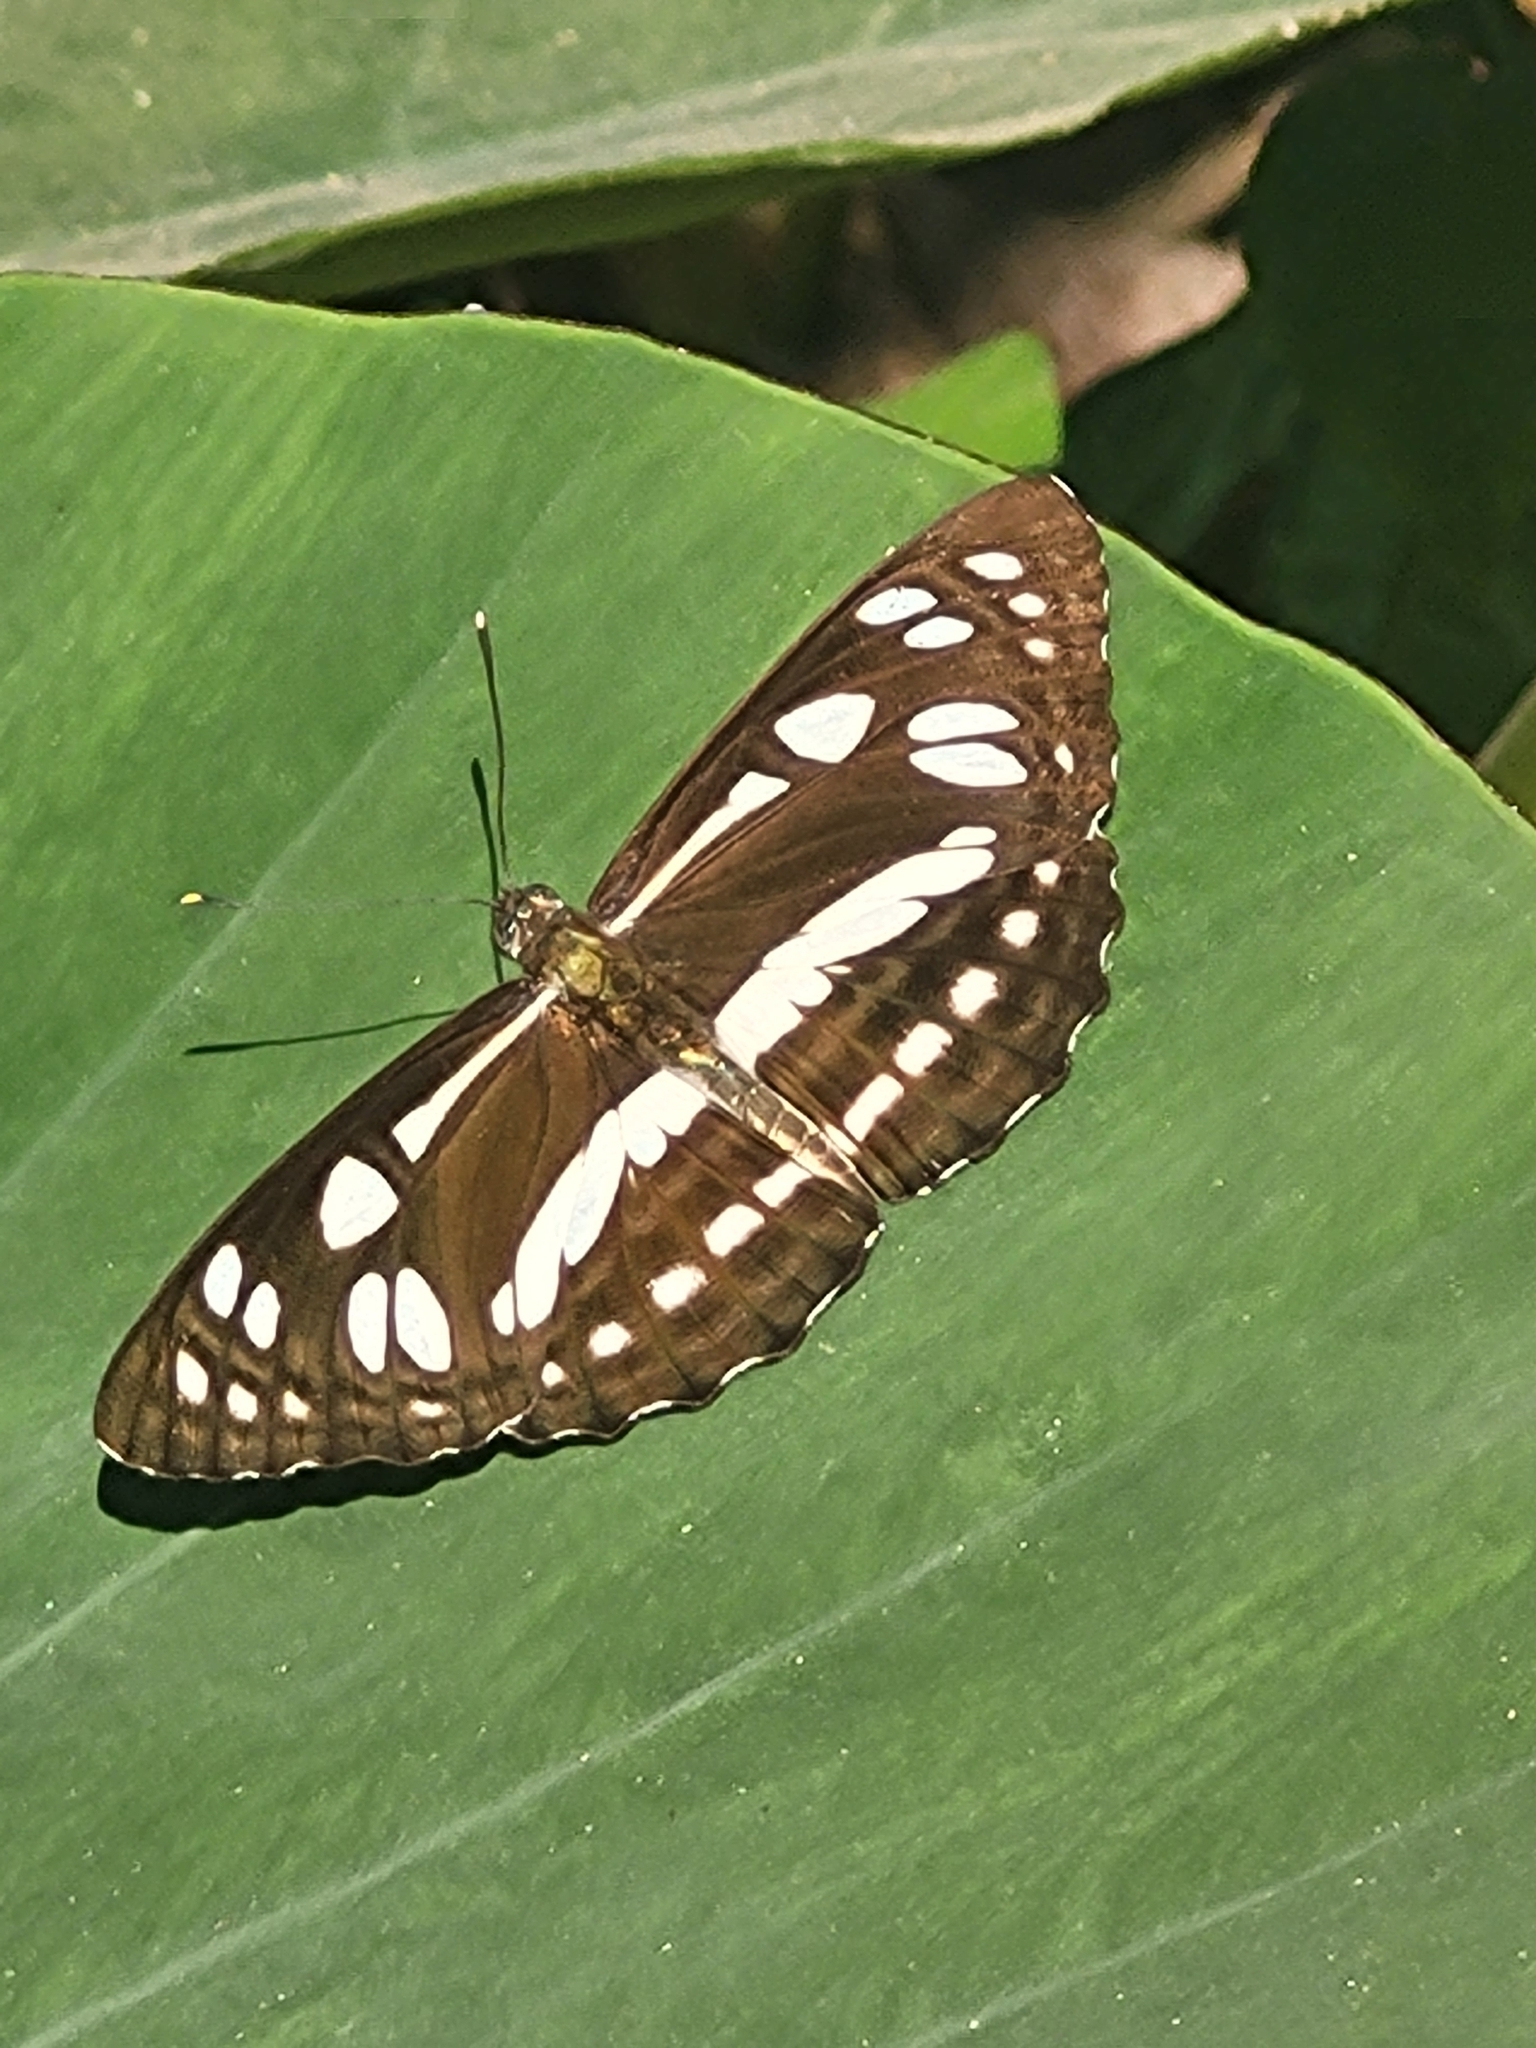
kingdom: Animalia
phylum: Arthropoda
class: Insecta
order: Lepidoptera
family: Nymphalidae
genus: Phaedyma
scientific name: Phaedyma columella
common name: Short banded sailer
